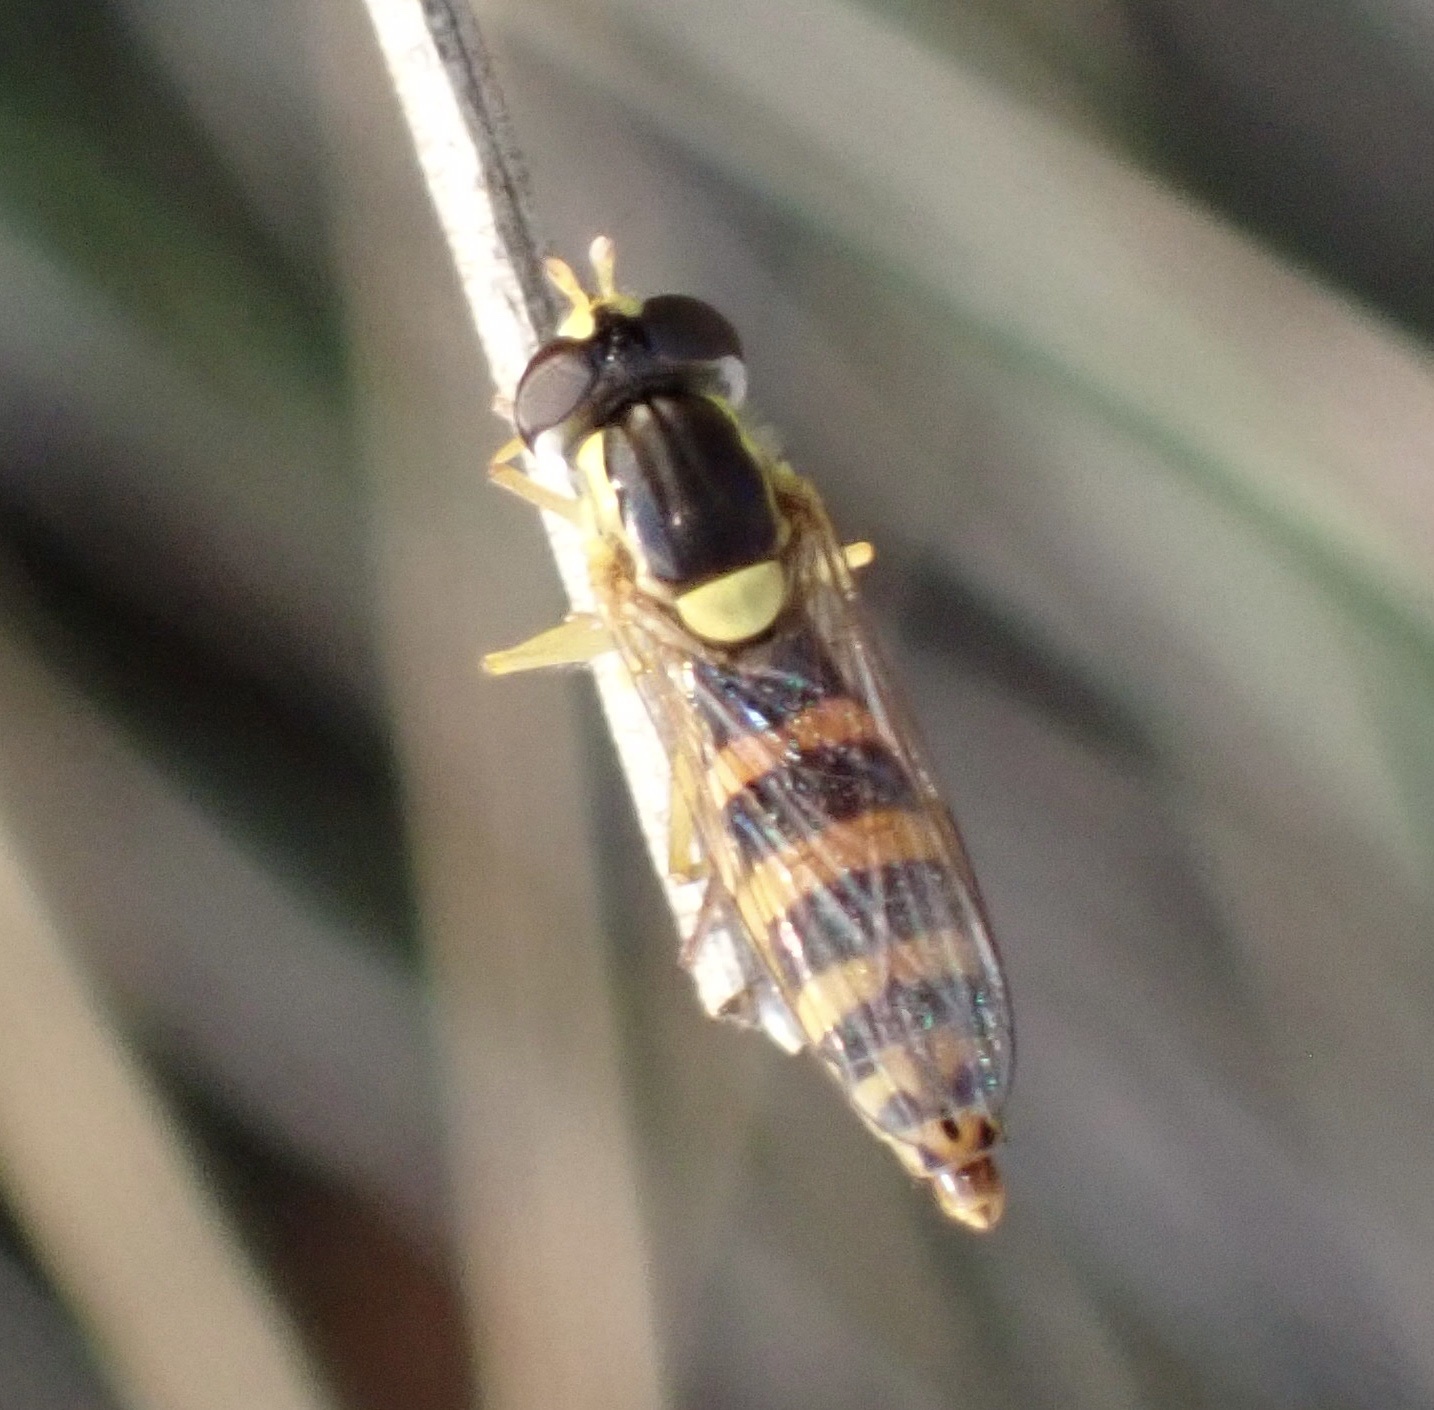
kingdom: Animalia
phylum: Arthropoda
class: Insecta
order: Diptera
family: Syrphidae
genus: Sphaerophoria
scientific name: Sphaerophoria
